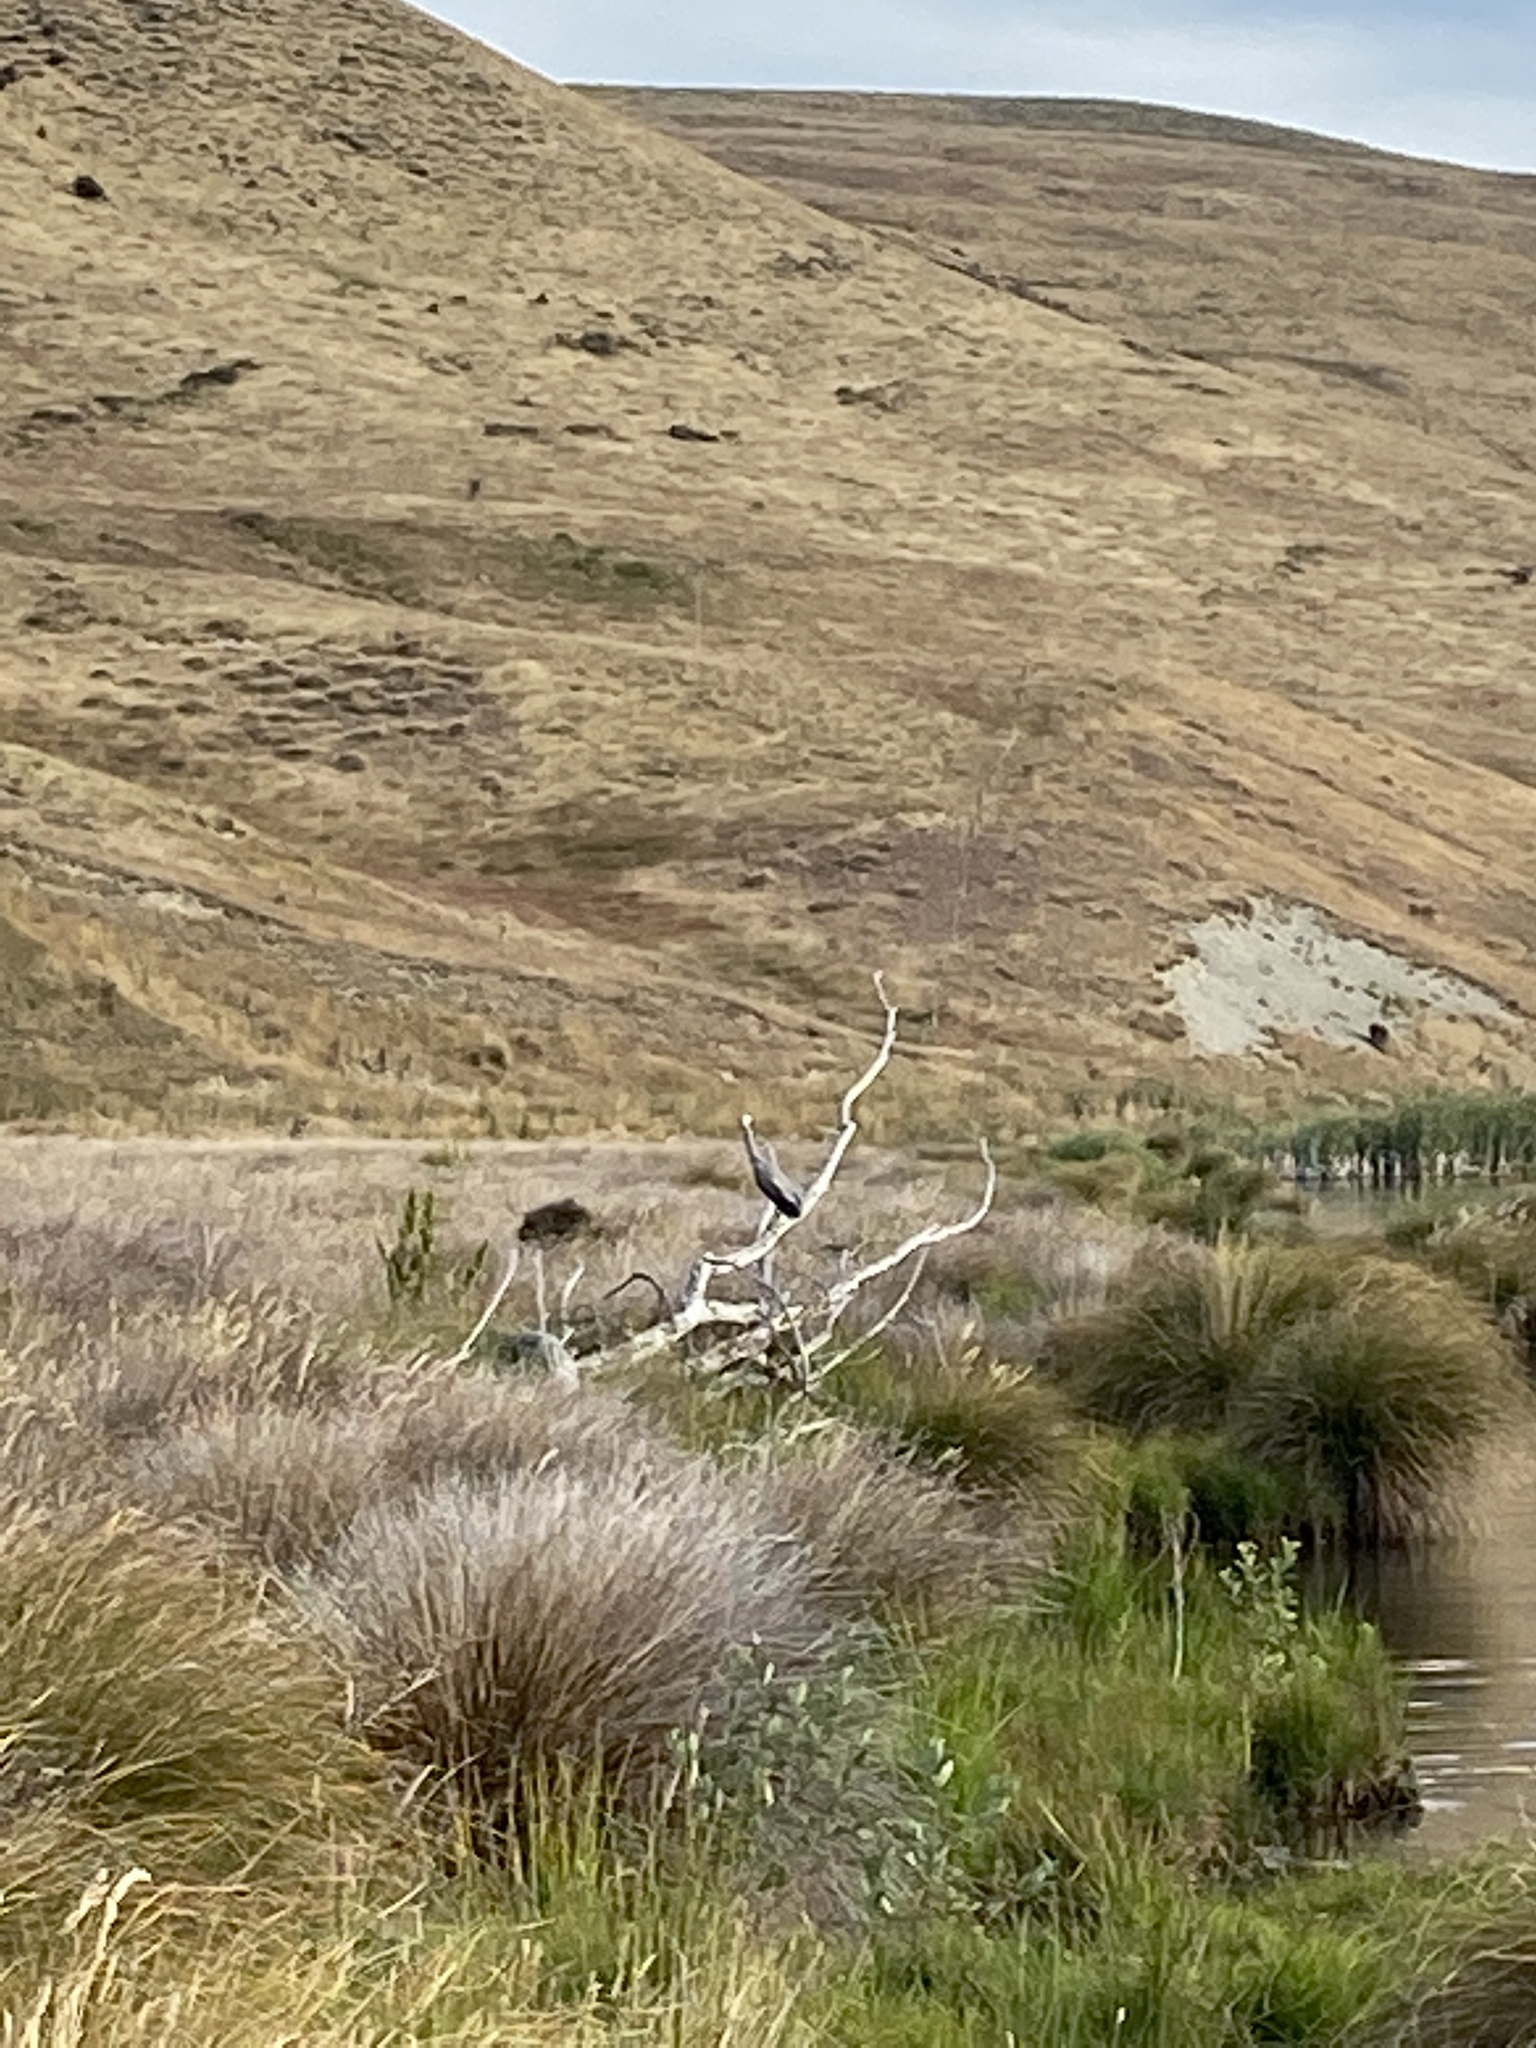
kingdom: Animalia
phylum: Chordata
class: Aves
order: Pelecaniformes
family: Ardeidae
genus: Egretta
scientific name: Egretta novaehollandiae
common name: White-faced heron
